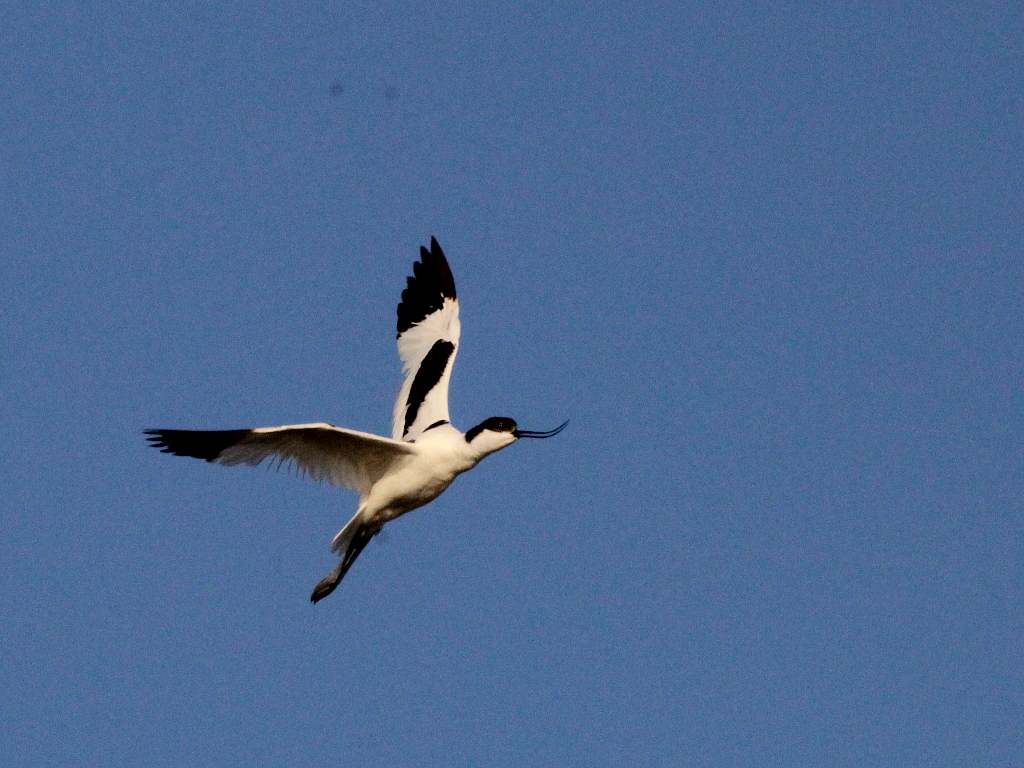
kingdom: Animalia
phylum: Chordata
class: Aves
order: Charadriiformes
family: Recurvirostridae
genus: Recurvirostra
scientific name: Recurvirostra avosetta
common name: Pied avocet
